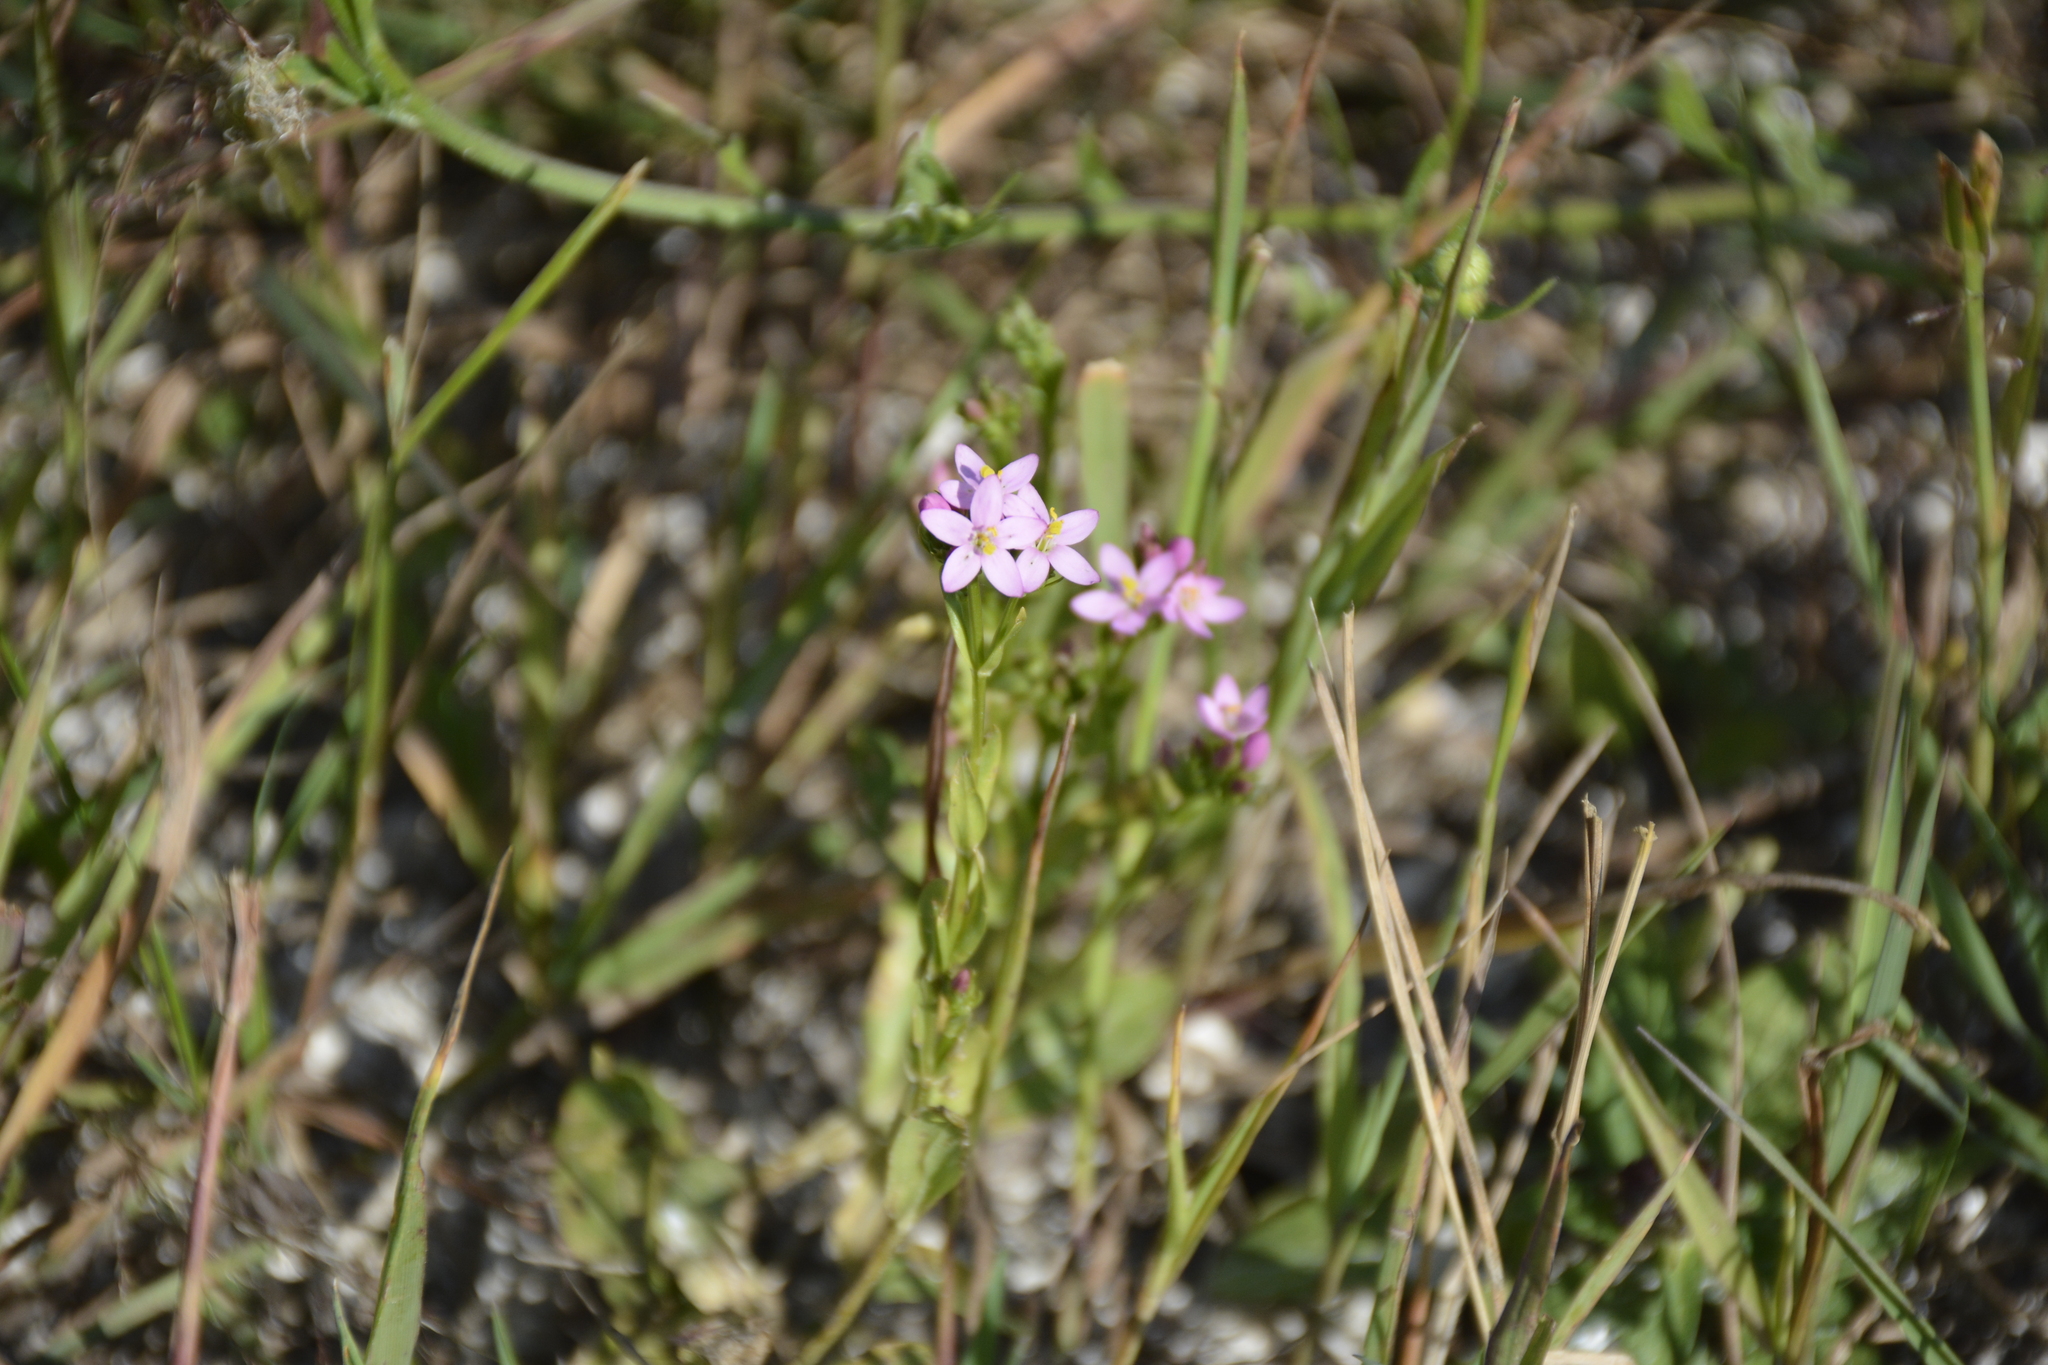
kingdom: Plantae
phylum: Tracheophyta
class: Magnoliopsida
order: Gentianales
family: Gentianaceae
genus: Centaurium
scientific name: Centaurium erythraea
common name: Common centaury
